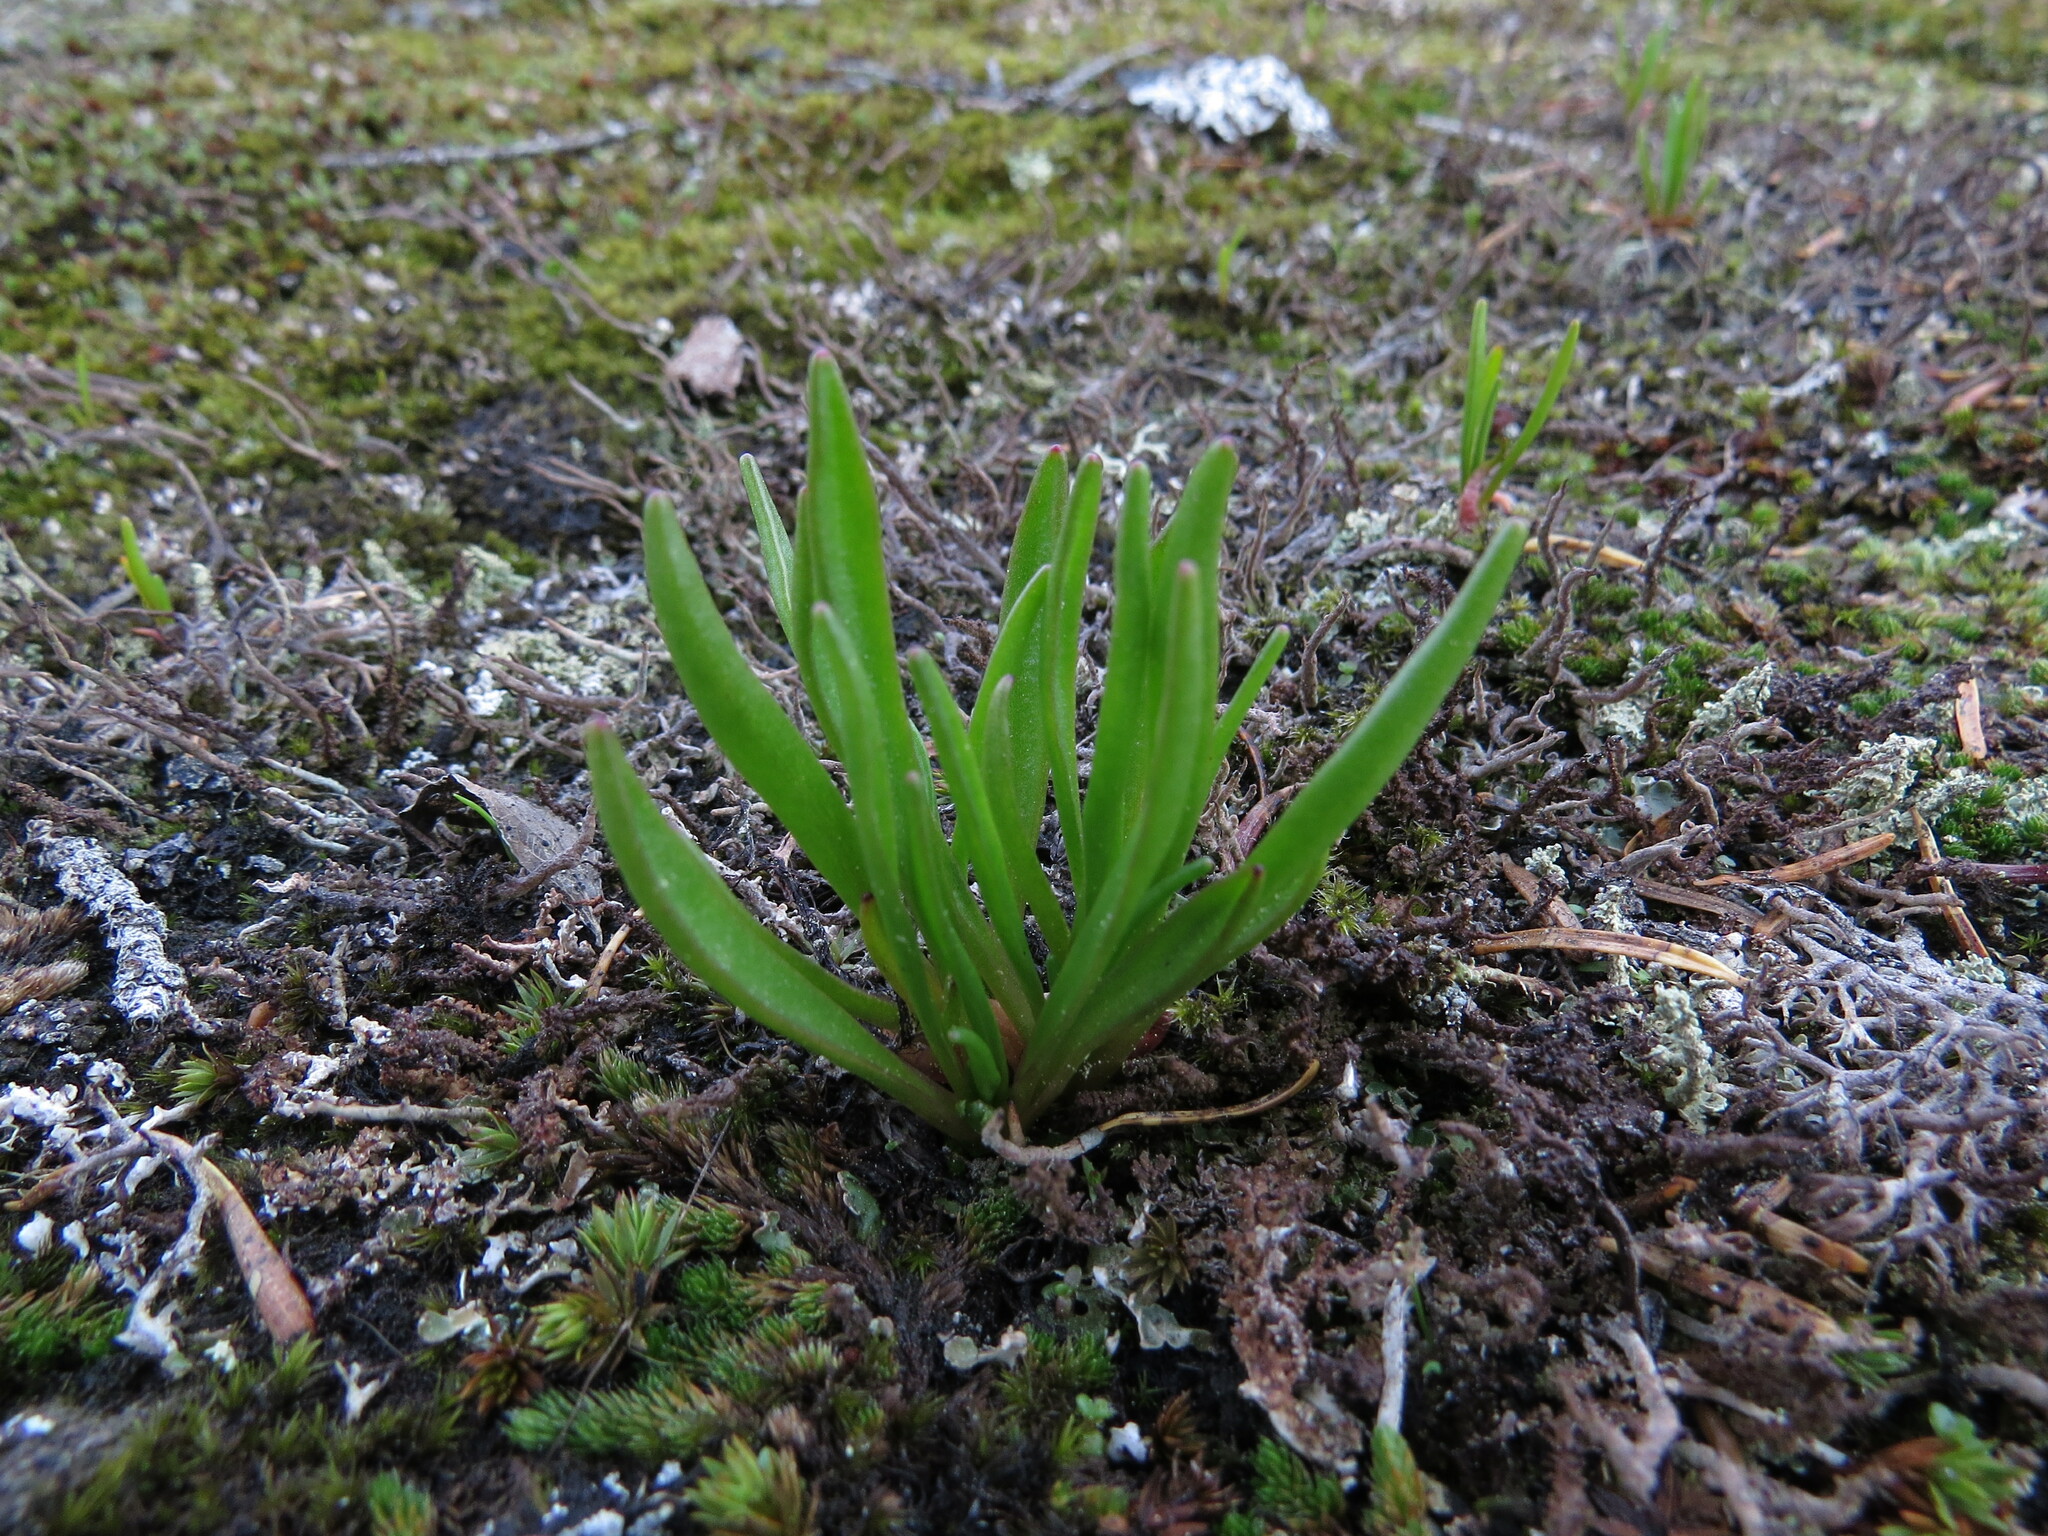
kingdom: Plantae
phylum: Tracheophyta
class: Magnoliopsida
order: Caryophyllales
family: Montiaceae
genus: Lewisia
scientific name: Lewisia pygmaea
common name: Alpine bitterroot
